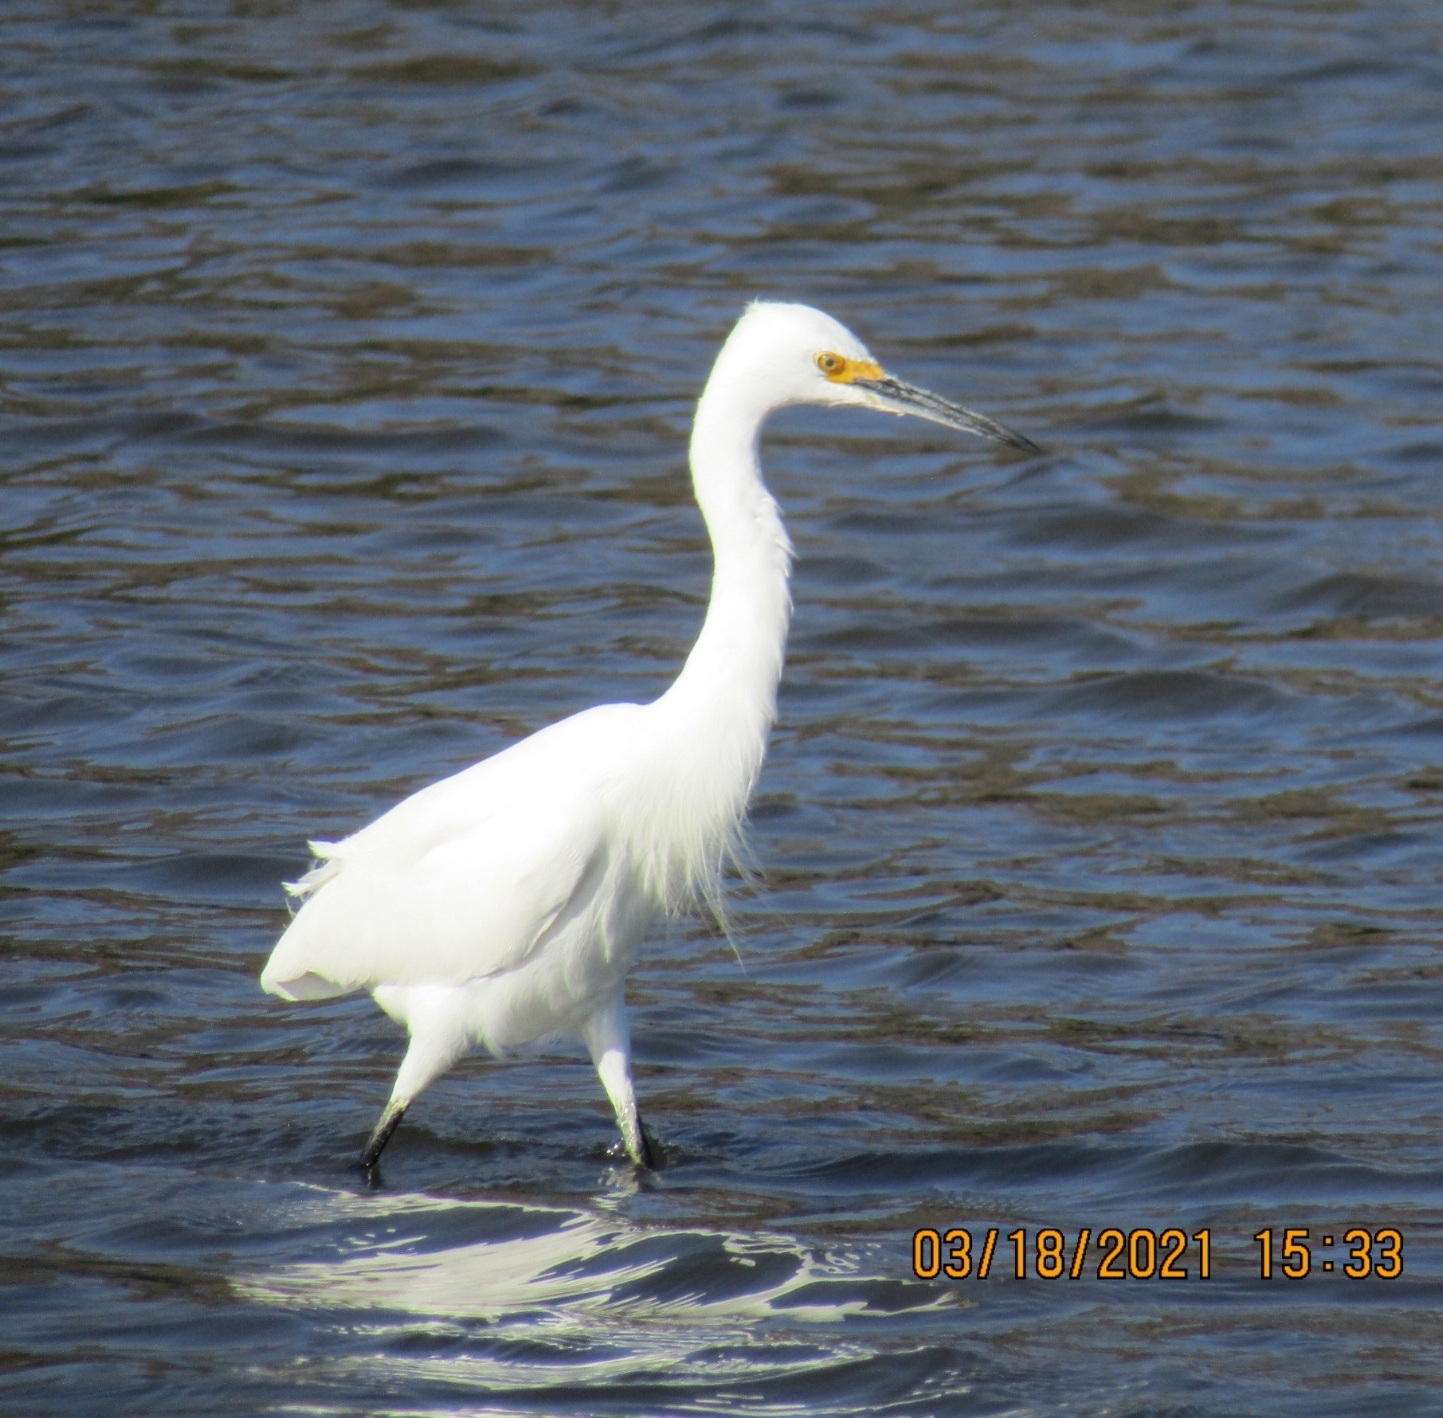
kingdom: Animalia
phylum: Chordata
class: Aves
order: Pelecaniformes
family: Ardeidae
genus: Egretta
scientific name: Egretta thula
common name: Snowy egret
